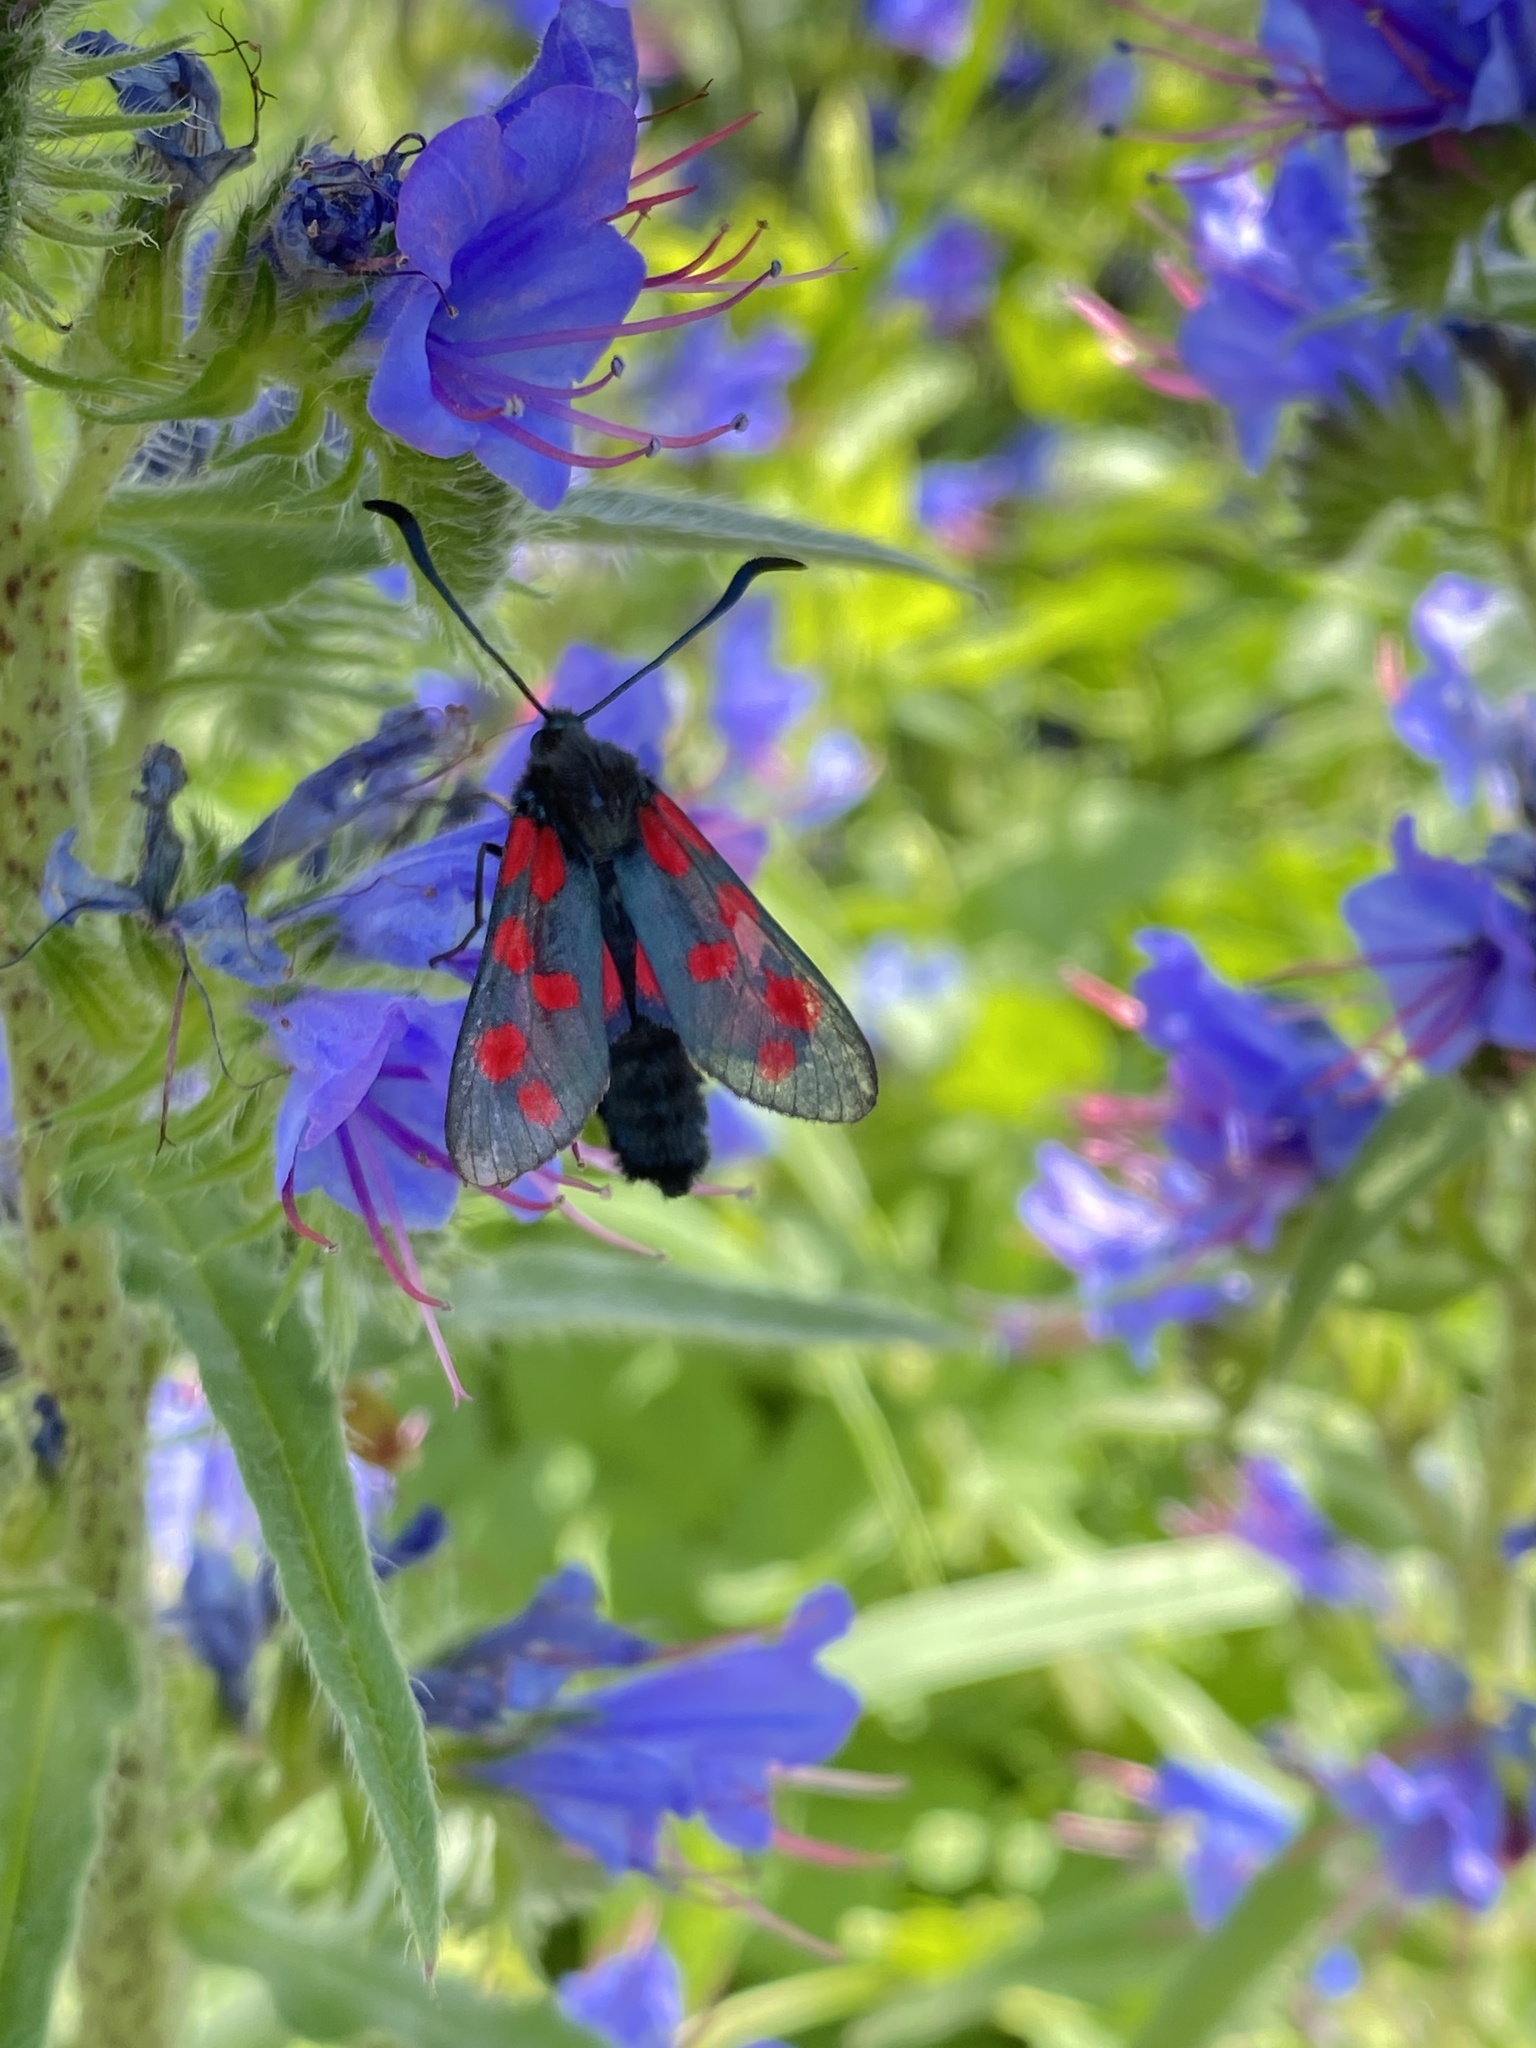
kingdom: Animalia
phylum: Arthropoda
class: Insecta
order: Lepidoptera
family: Zygaenidae
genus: Zygaena
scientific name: Zygaena filipendulae
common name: Six-spot burnet
